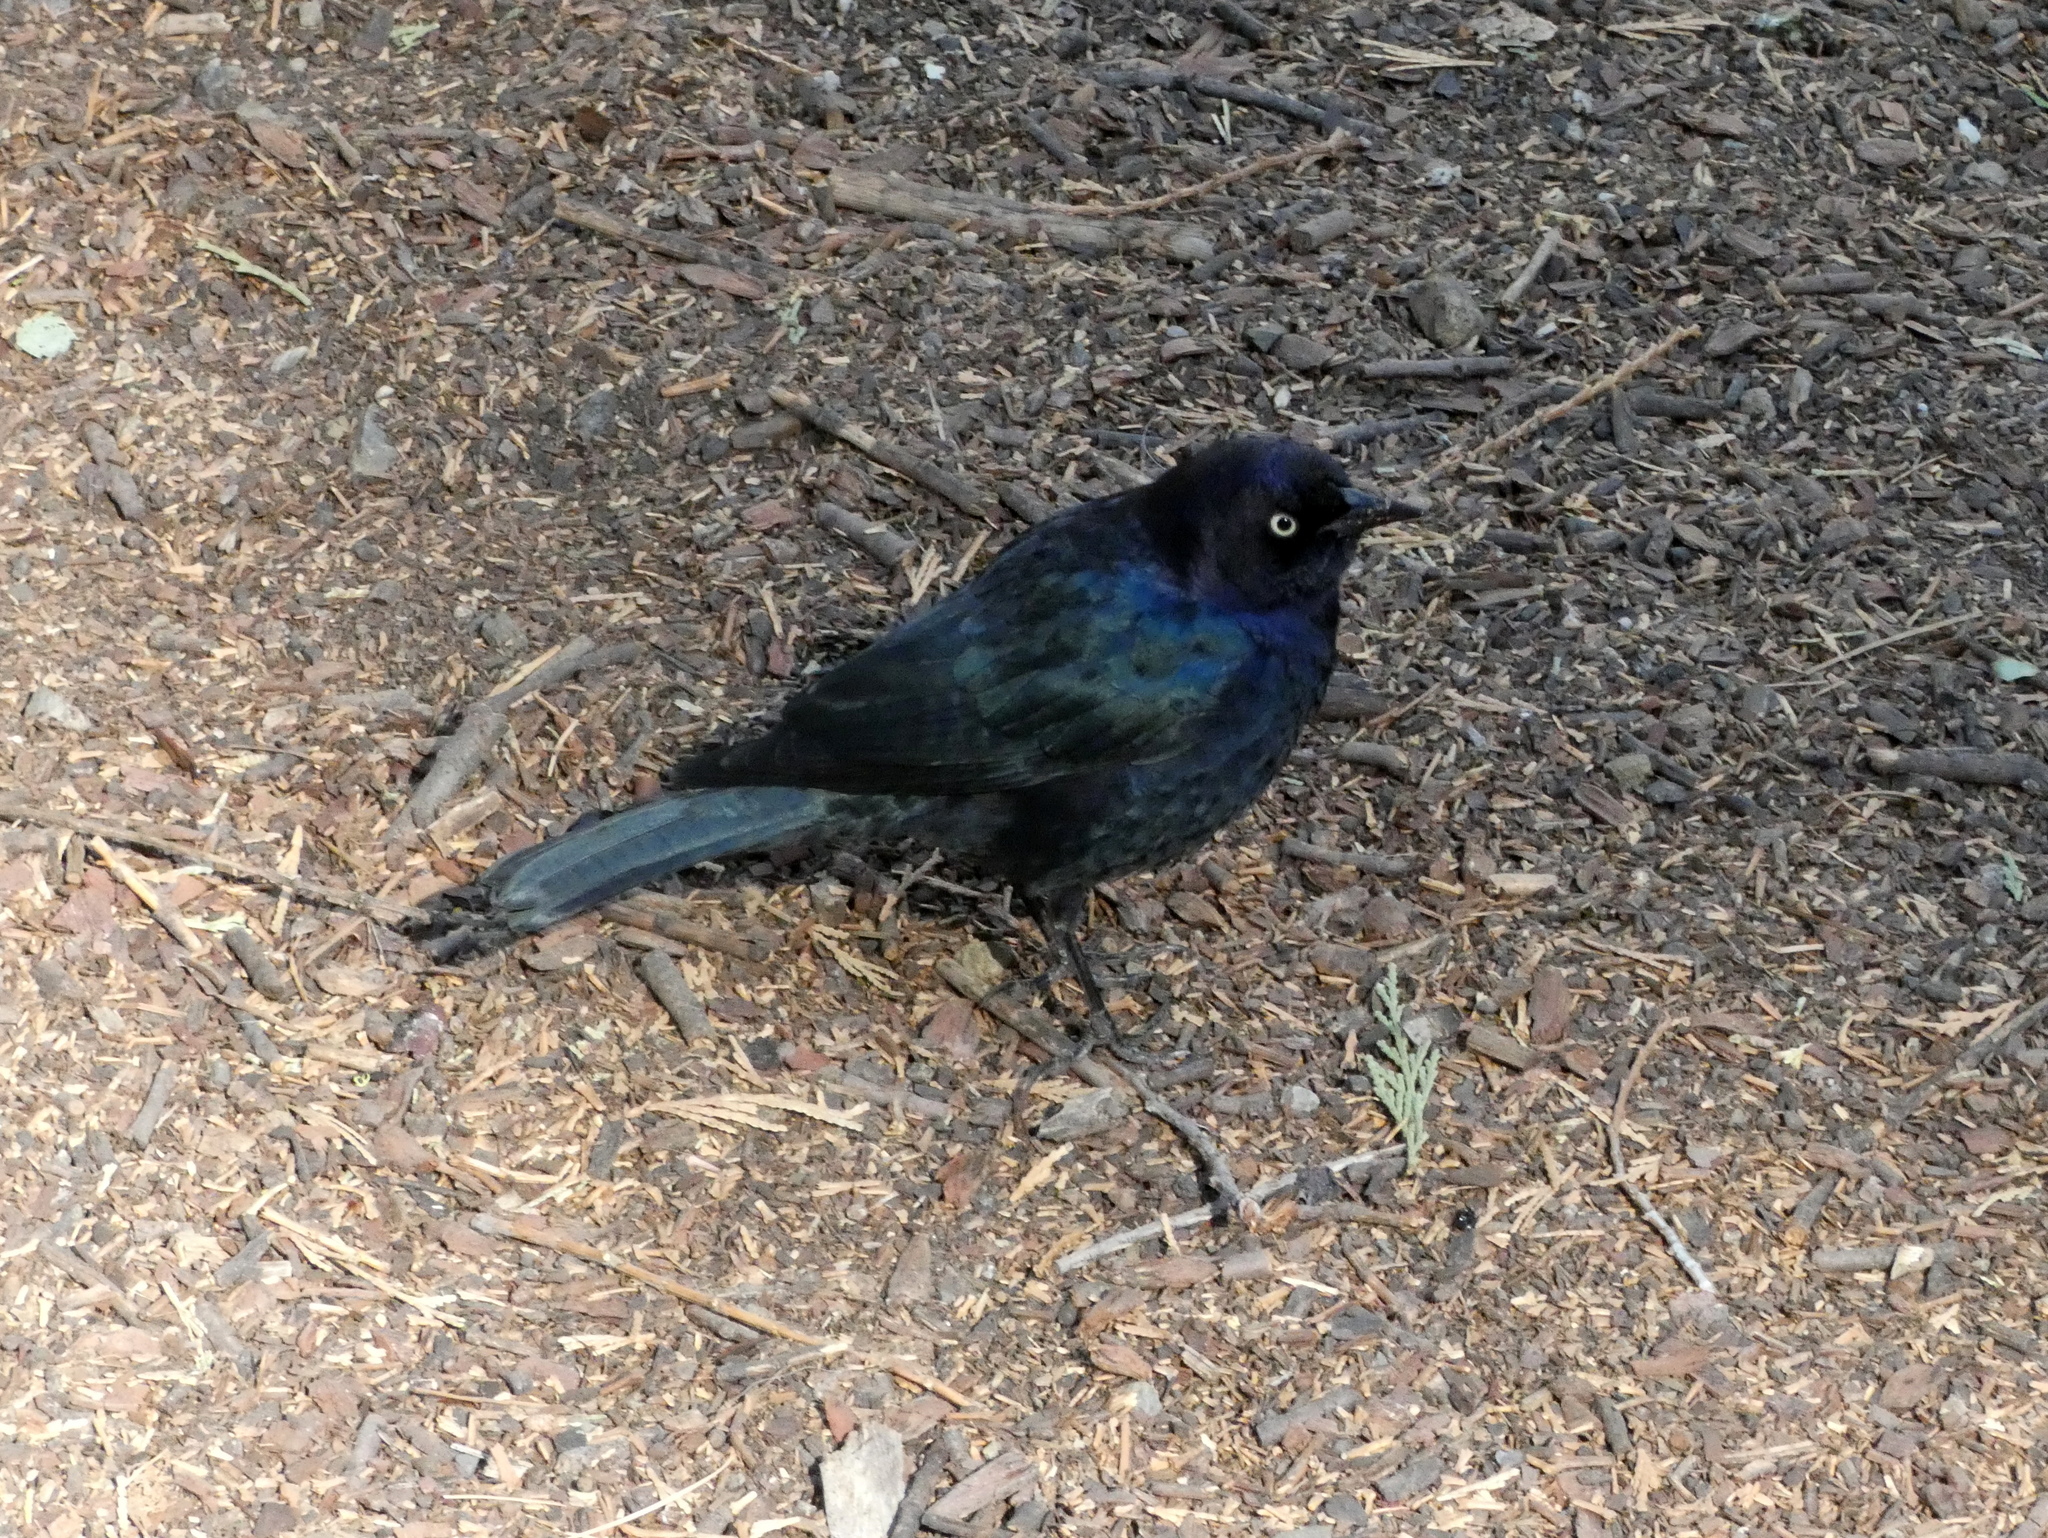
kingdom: Animalia
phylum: Chordata
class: Aves
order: Passeriformes
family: Icteridae
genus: Euphagus
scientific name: Euphagus cyanocephalus
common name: Brewer's blackbird
